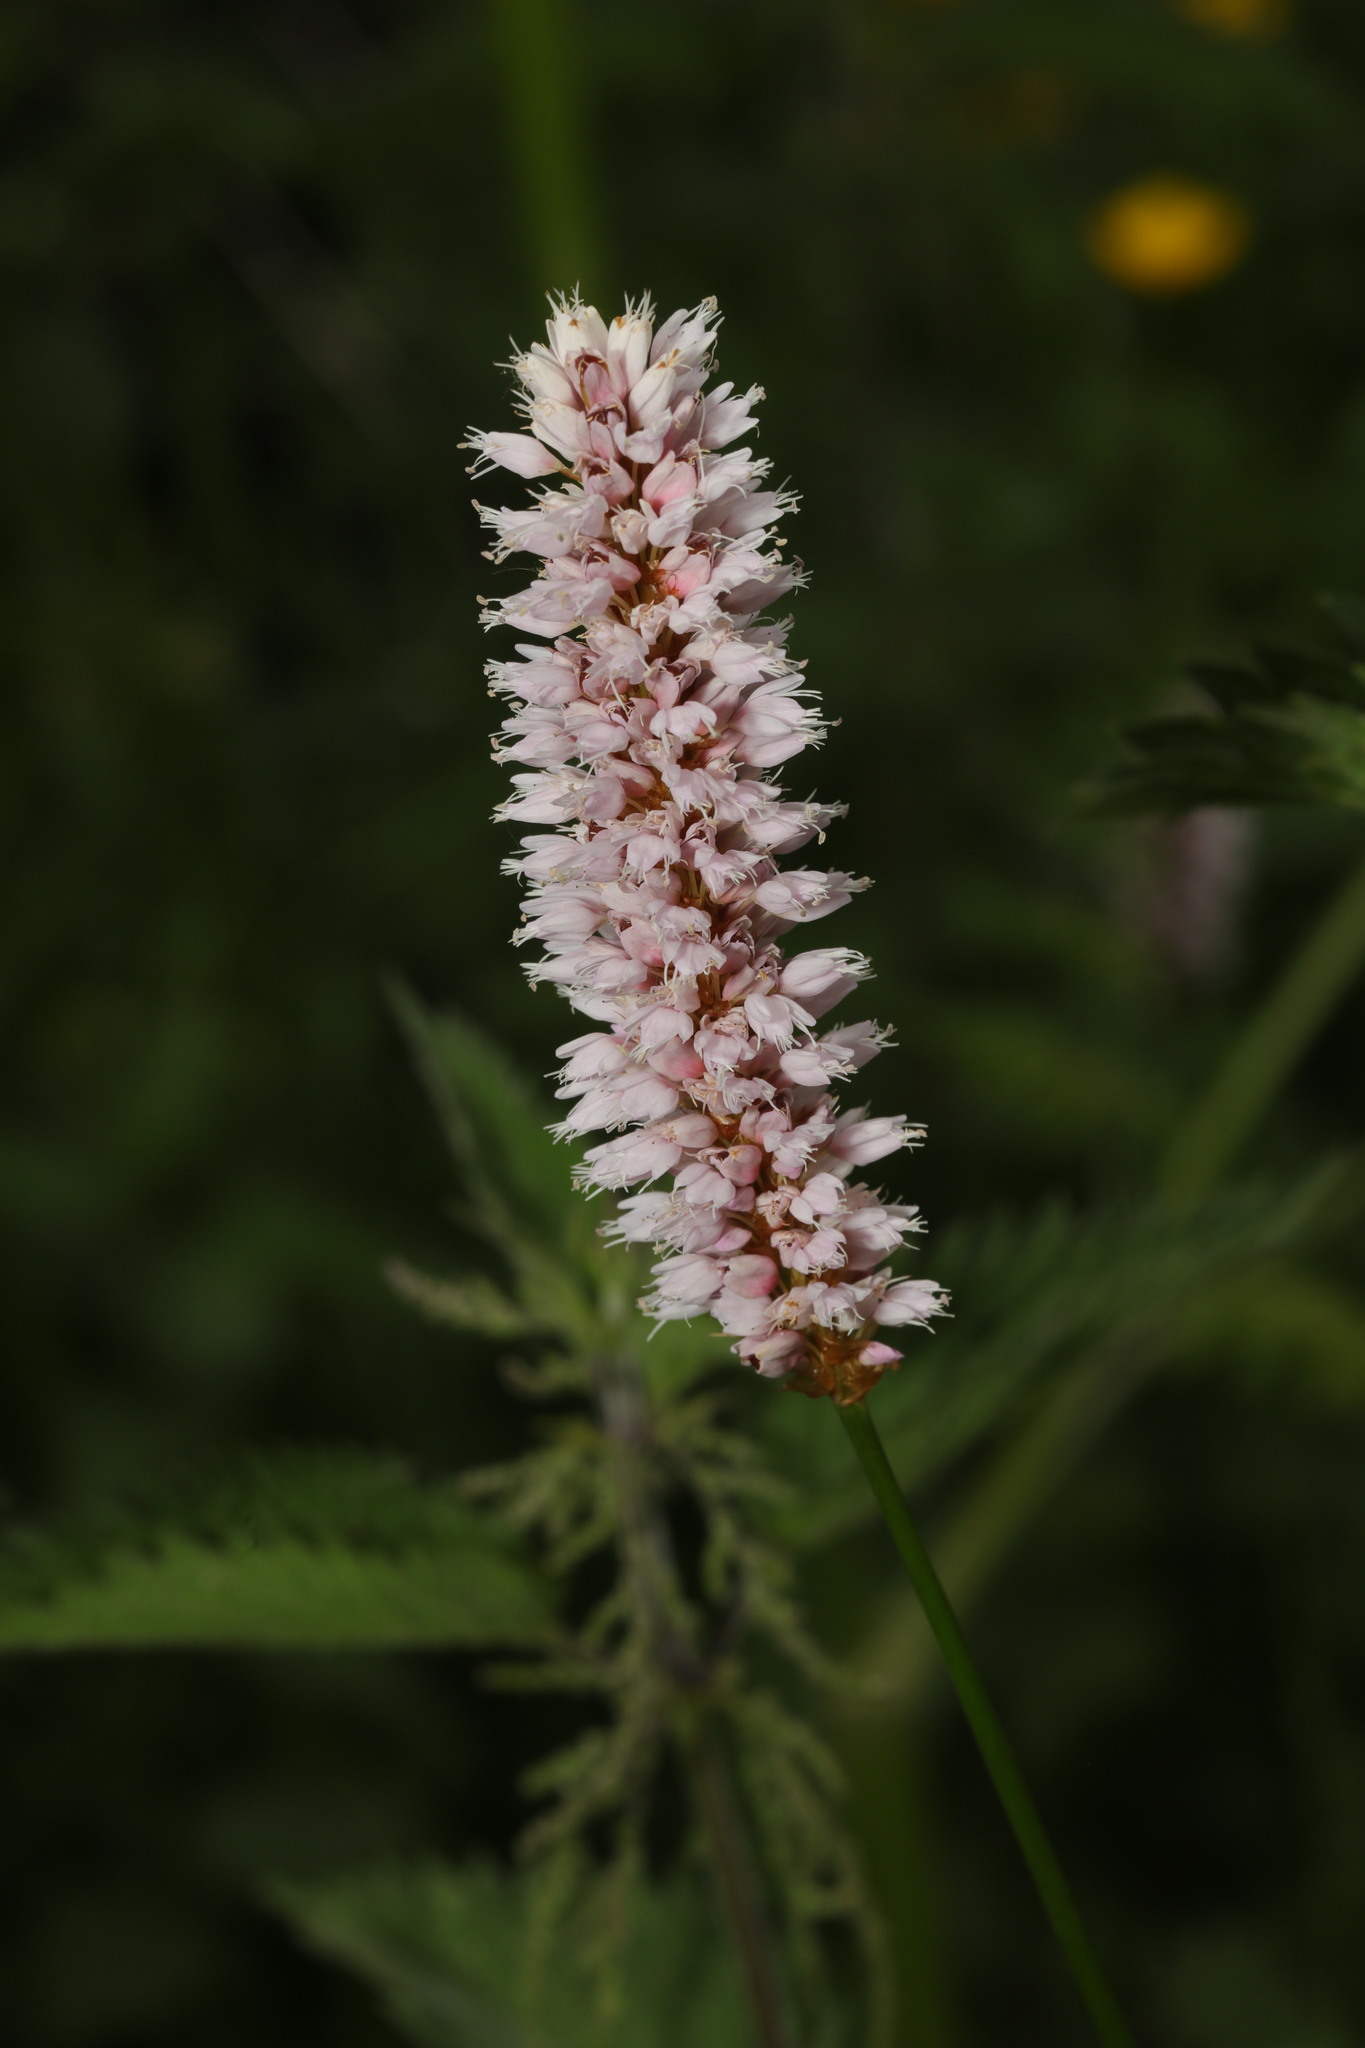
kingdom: Plantae
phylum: Tracheophyta
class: Magnoliopsida
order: Caryophyllales
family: Polygonaceae
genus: Bistorta
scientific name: Bistorta officinalis
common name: Common bistort
